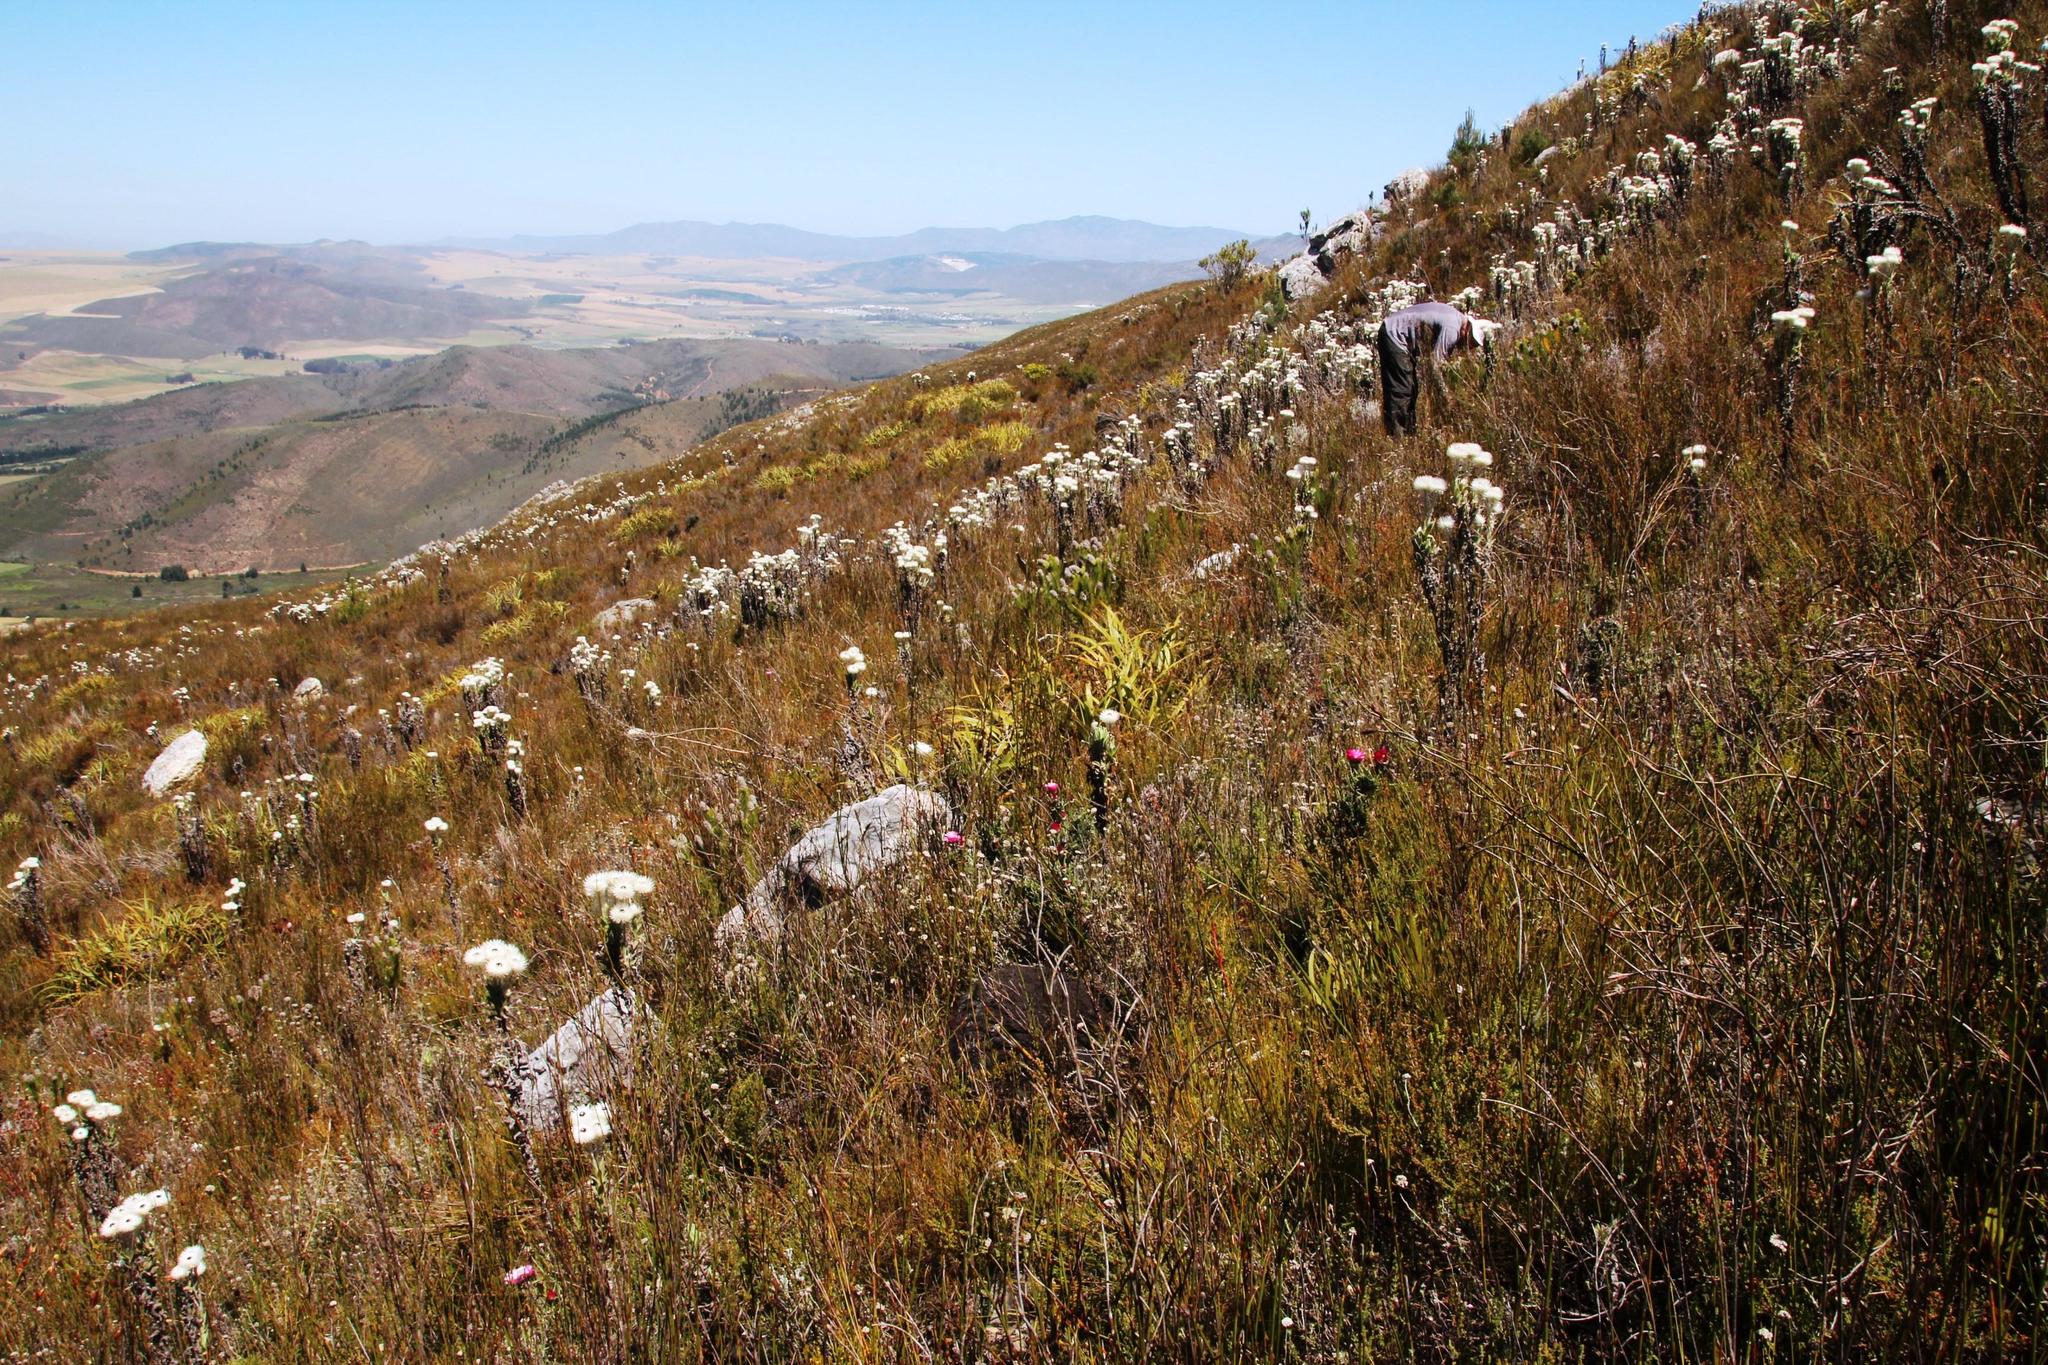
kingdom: Plantae
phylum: Tracheophyta
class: Magnoliopsida
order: Proteales
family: Proteaceae
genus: Sorocephalus
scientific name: Sorocephalus alopecurus
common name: Woolly-stalk clusterhead
